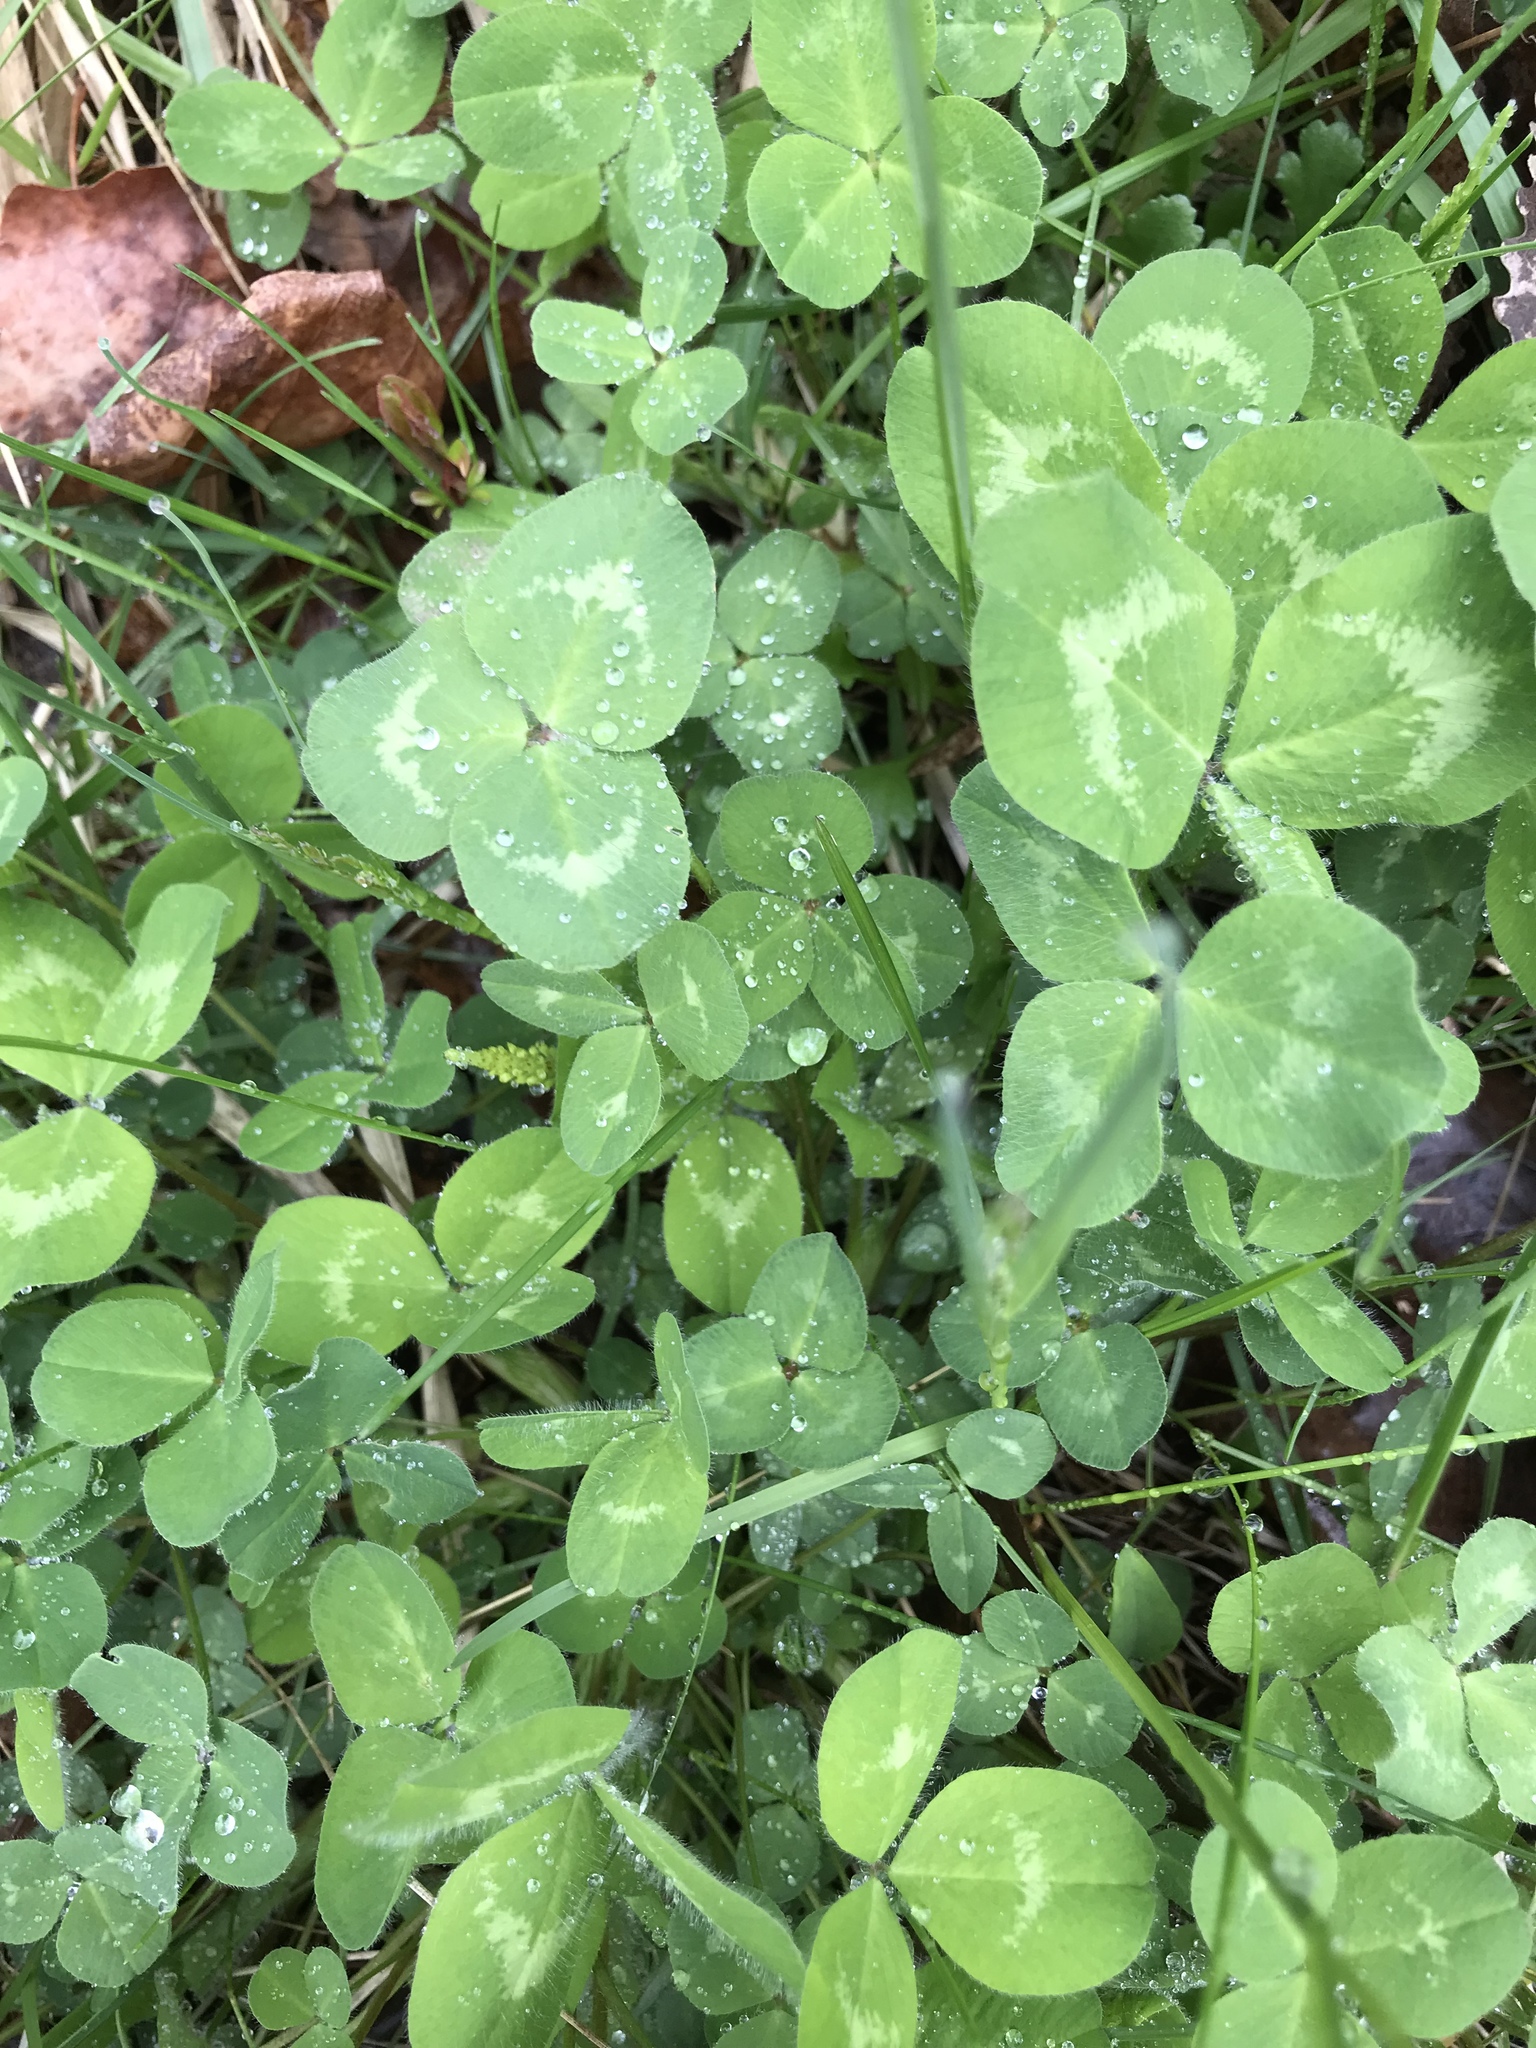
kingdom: Plantae
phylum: Tracheophyta
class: Magnoliopsida
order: Fabales
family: Fabaceae
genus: Trifolium
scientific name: Trifolium pratense
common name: Red clover
